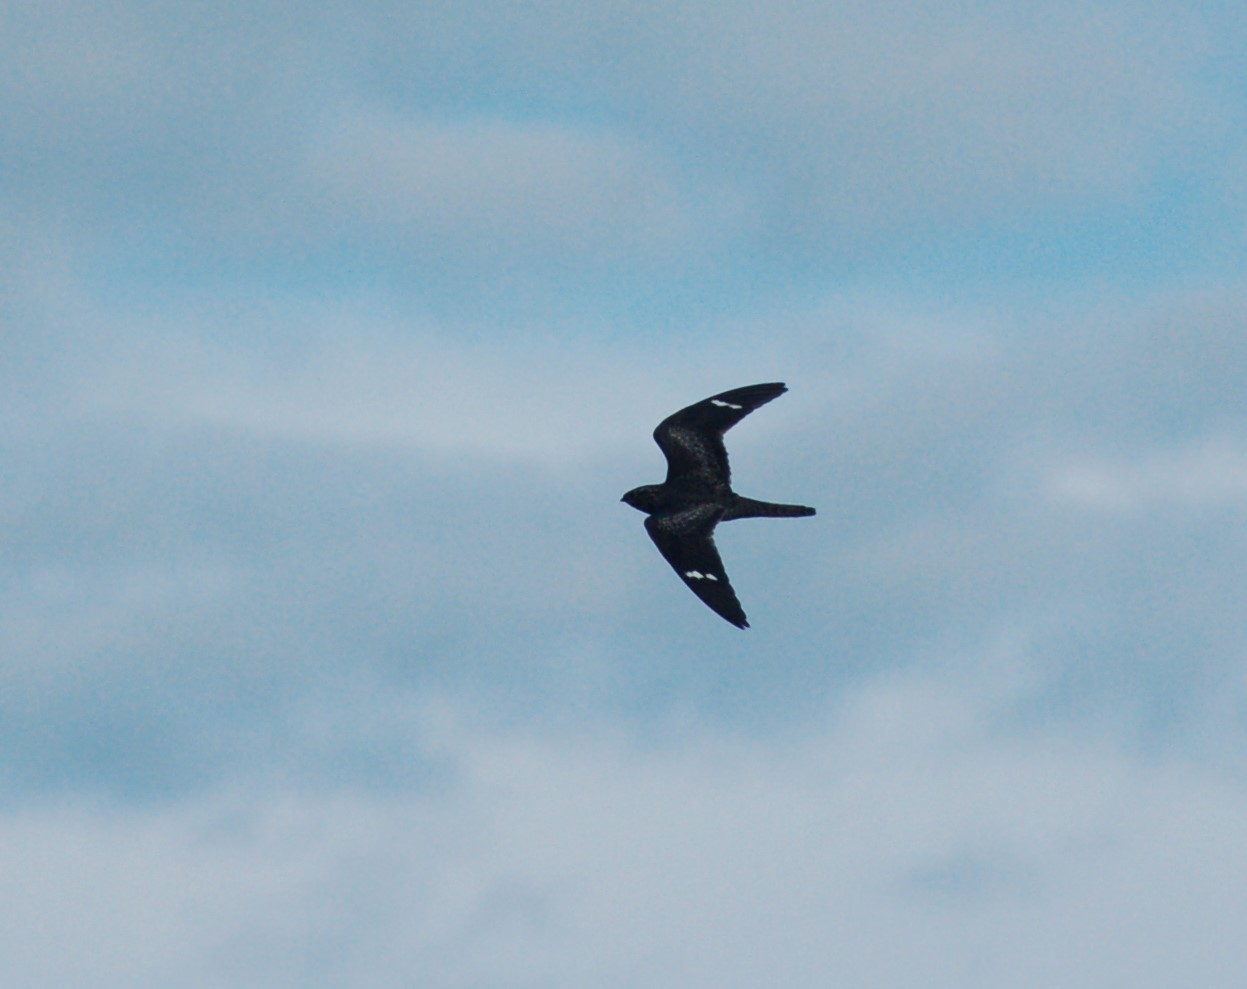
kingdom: Animalia
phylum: Chordata
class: Aves
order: Caprimulgiformes
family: Caprimulgidae
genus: Chordeiles
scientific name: Chordeiles minor
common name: Common nighthawk
